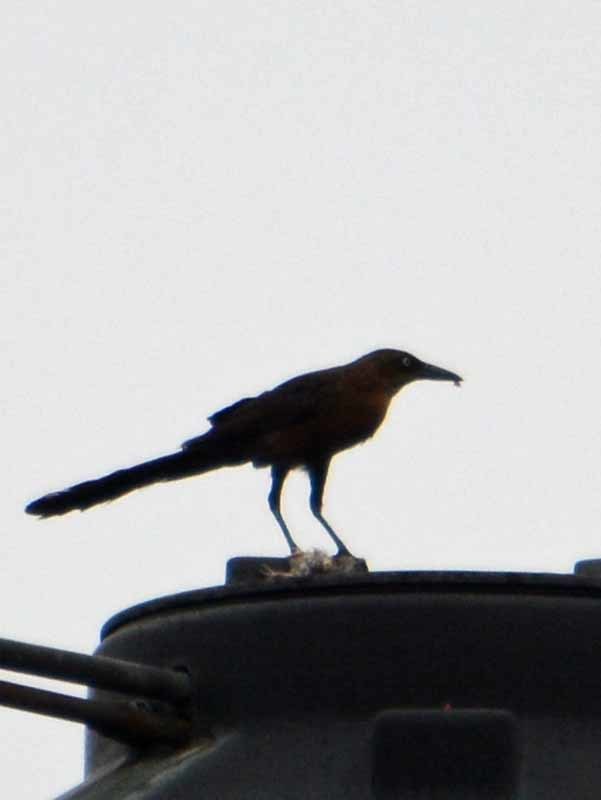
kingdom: Animalia
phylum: Chordata
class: Aves
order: Passeriformes
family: Icteridae
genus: Quiscalus
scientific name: Quiscalus mexicanus
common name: Great-tailed grackle
